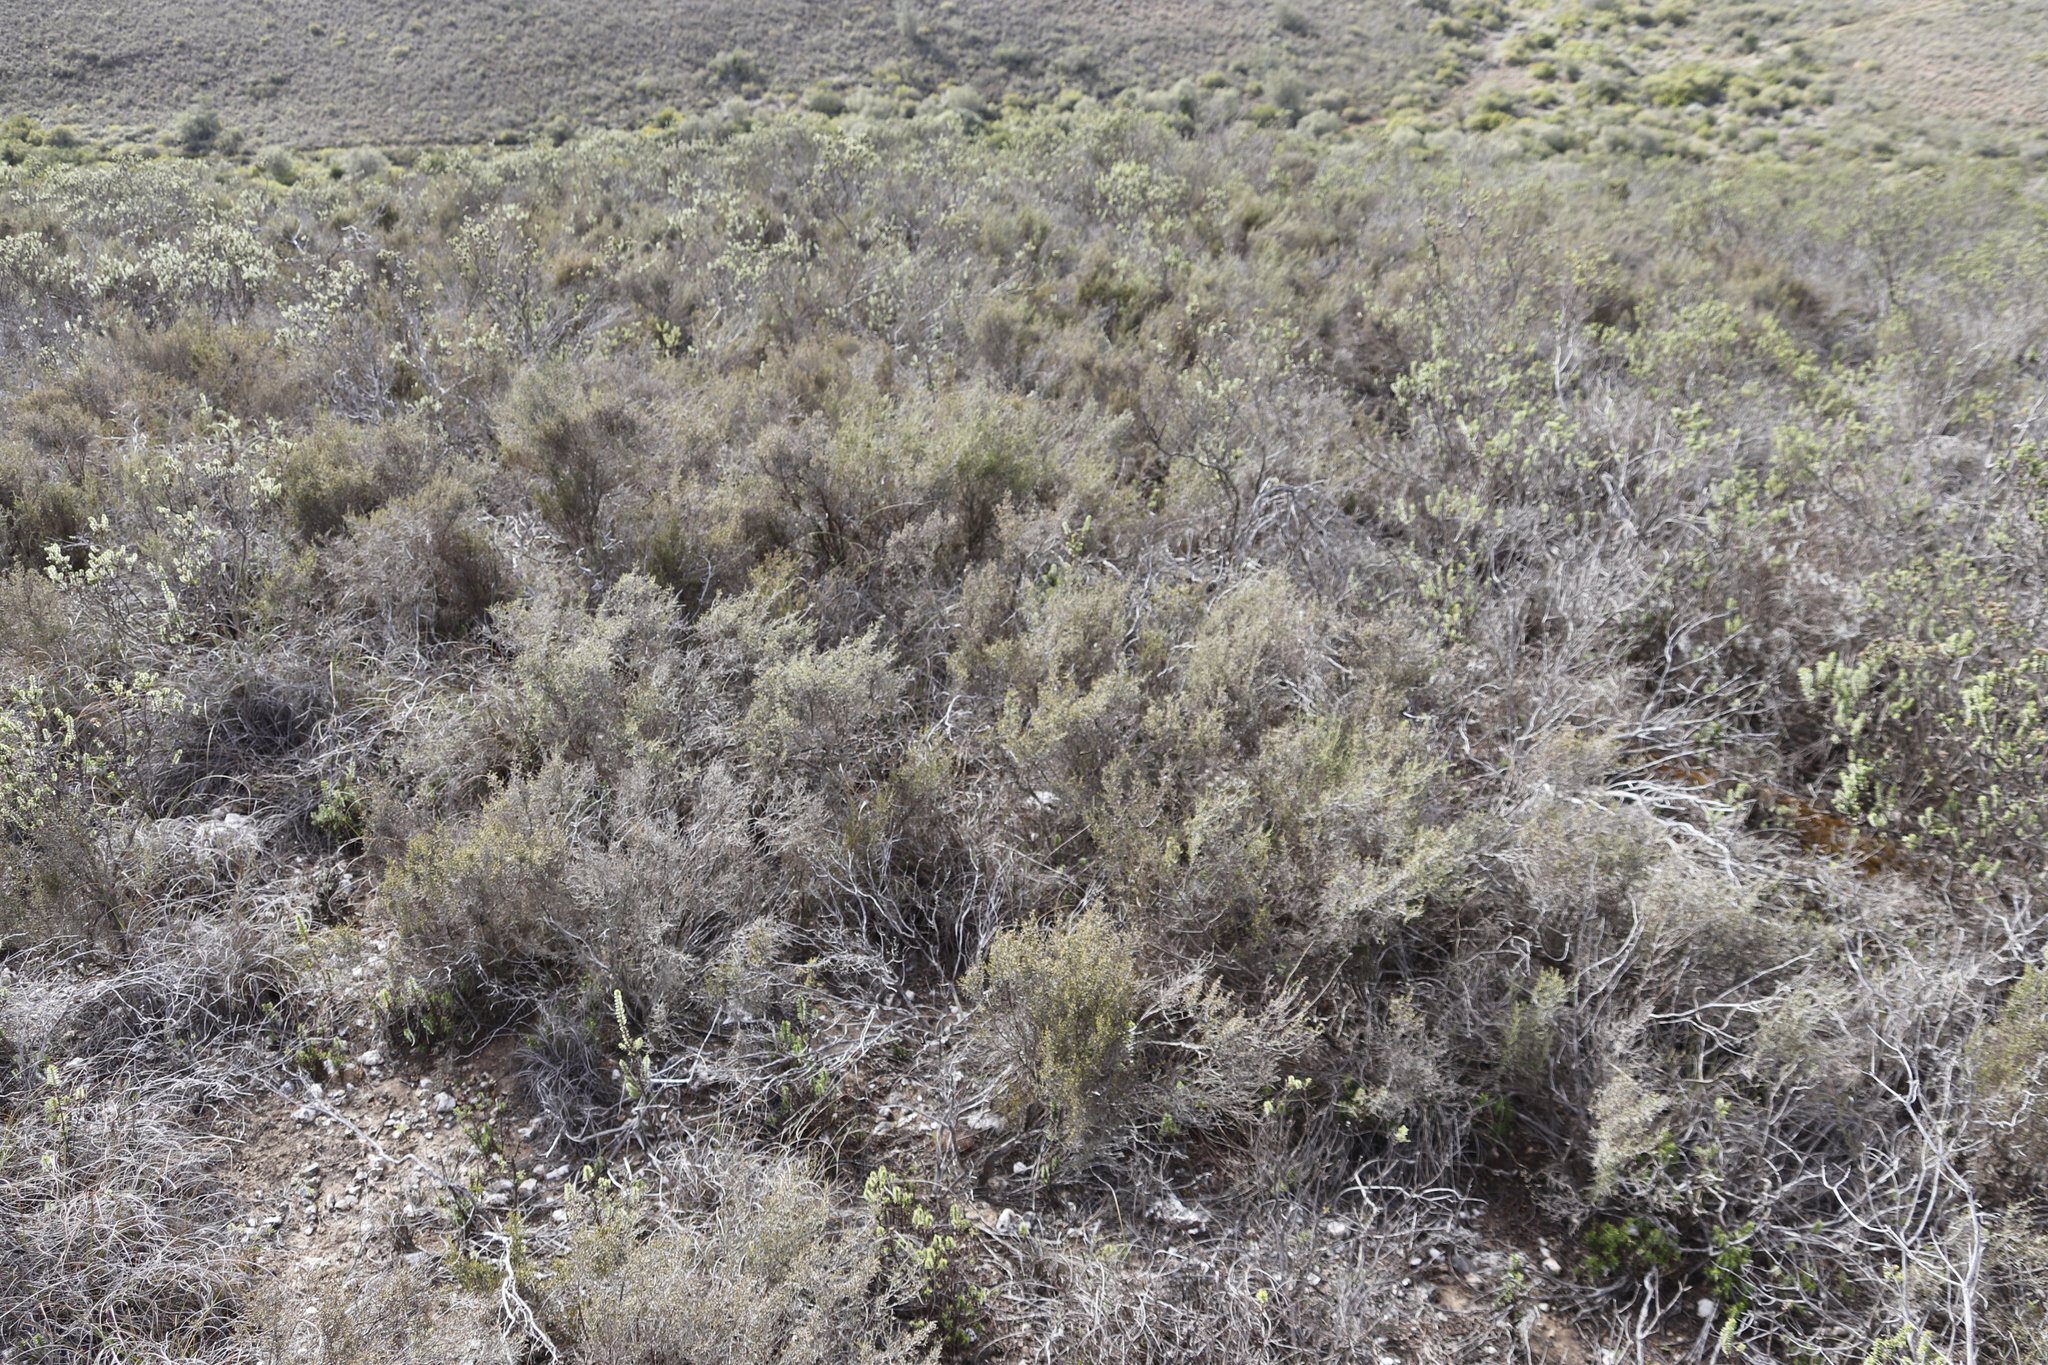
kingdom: Plantae
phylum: Tracheophyta
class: Magnoliopsida
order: Asterales
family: Asteraceae
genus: Dicerothamnus
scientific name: Dicerothamnus rhinocerotis
